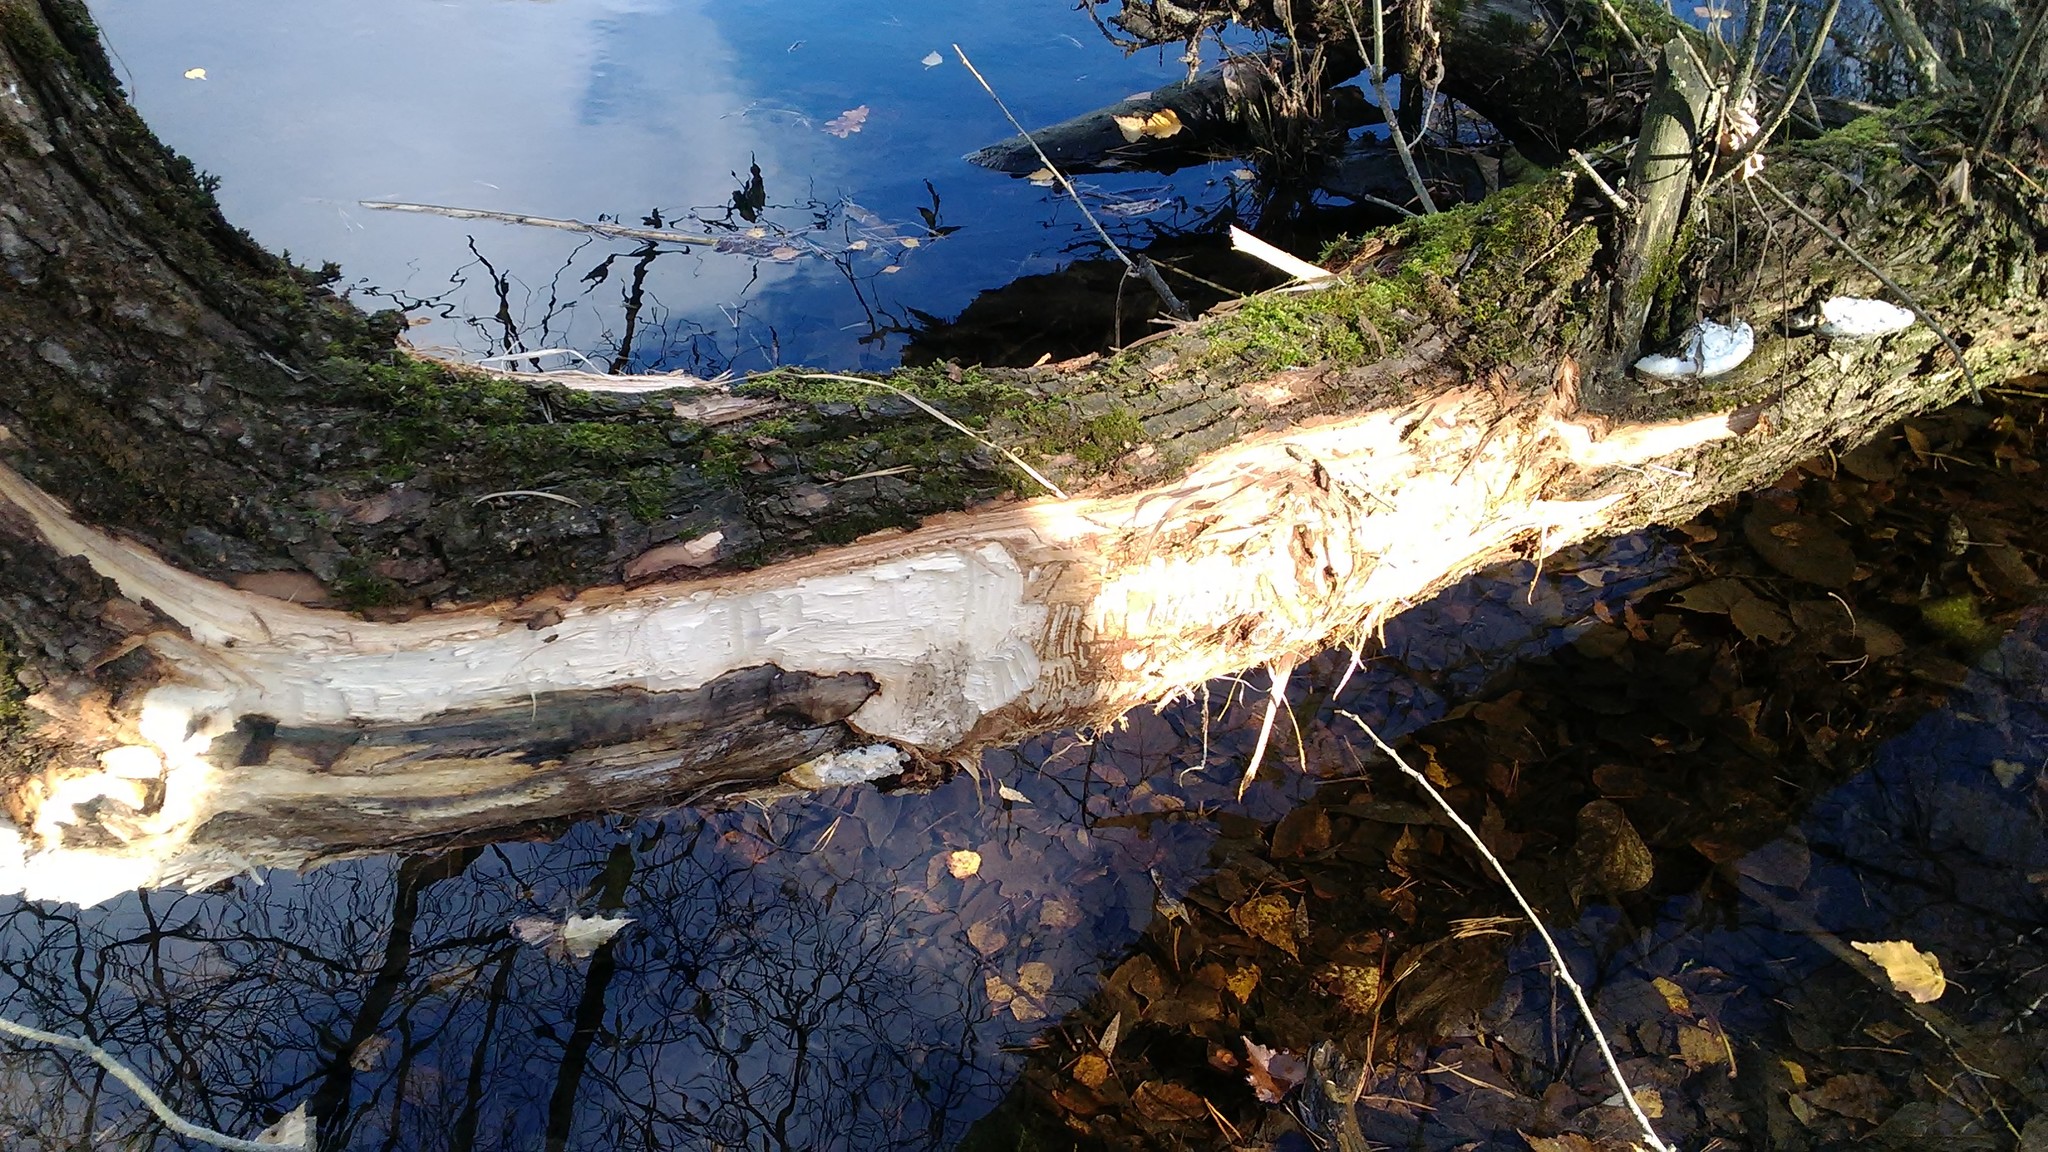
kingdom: Animalia
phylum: Chordata
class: Mammalia
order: Rodentia
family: Castoridae
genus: Castor
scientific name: Castor fiber
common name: Eurasian beaver
